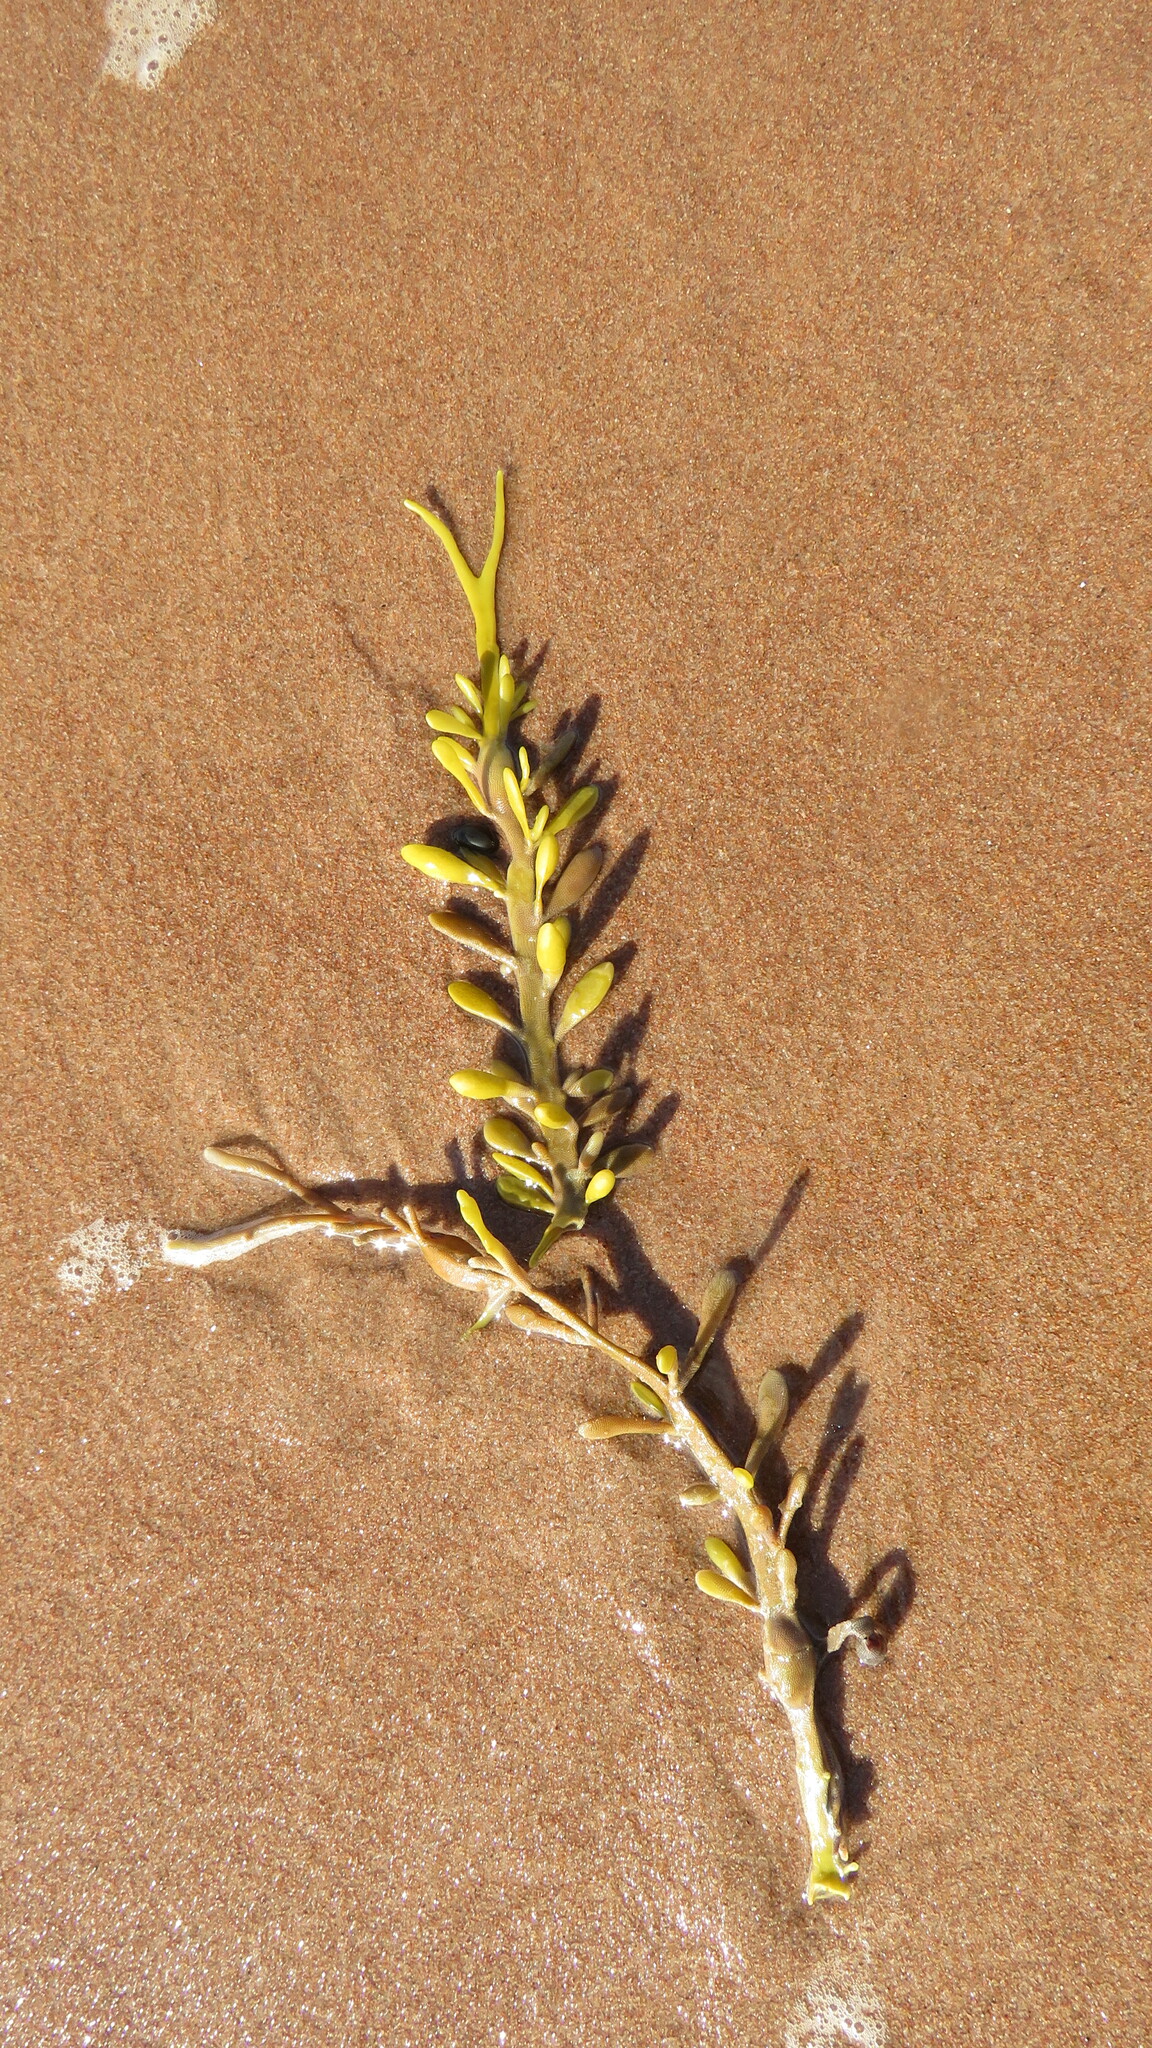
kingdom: Chromista
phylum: Ochrophyta
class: Phaeophyceae
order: Fucales
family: Fucaceae
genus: Ascophyllum
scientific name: Ascophyllum nodosum
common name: Knotted wrack
